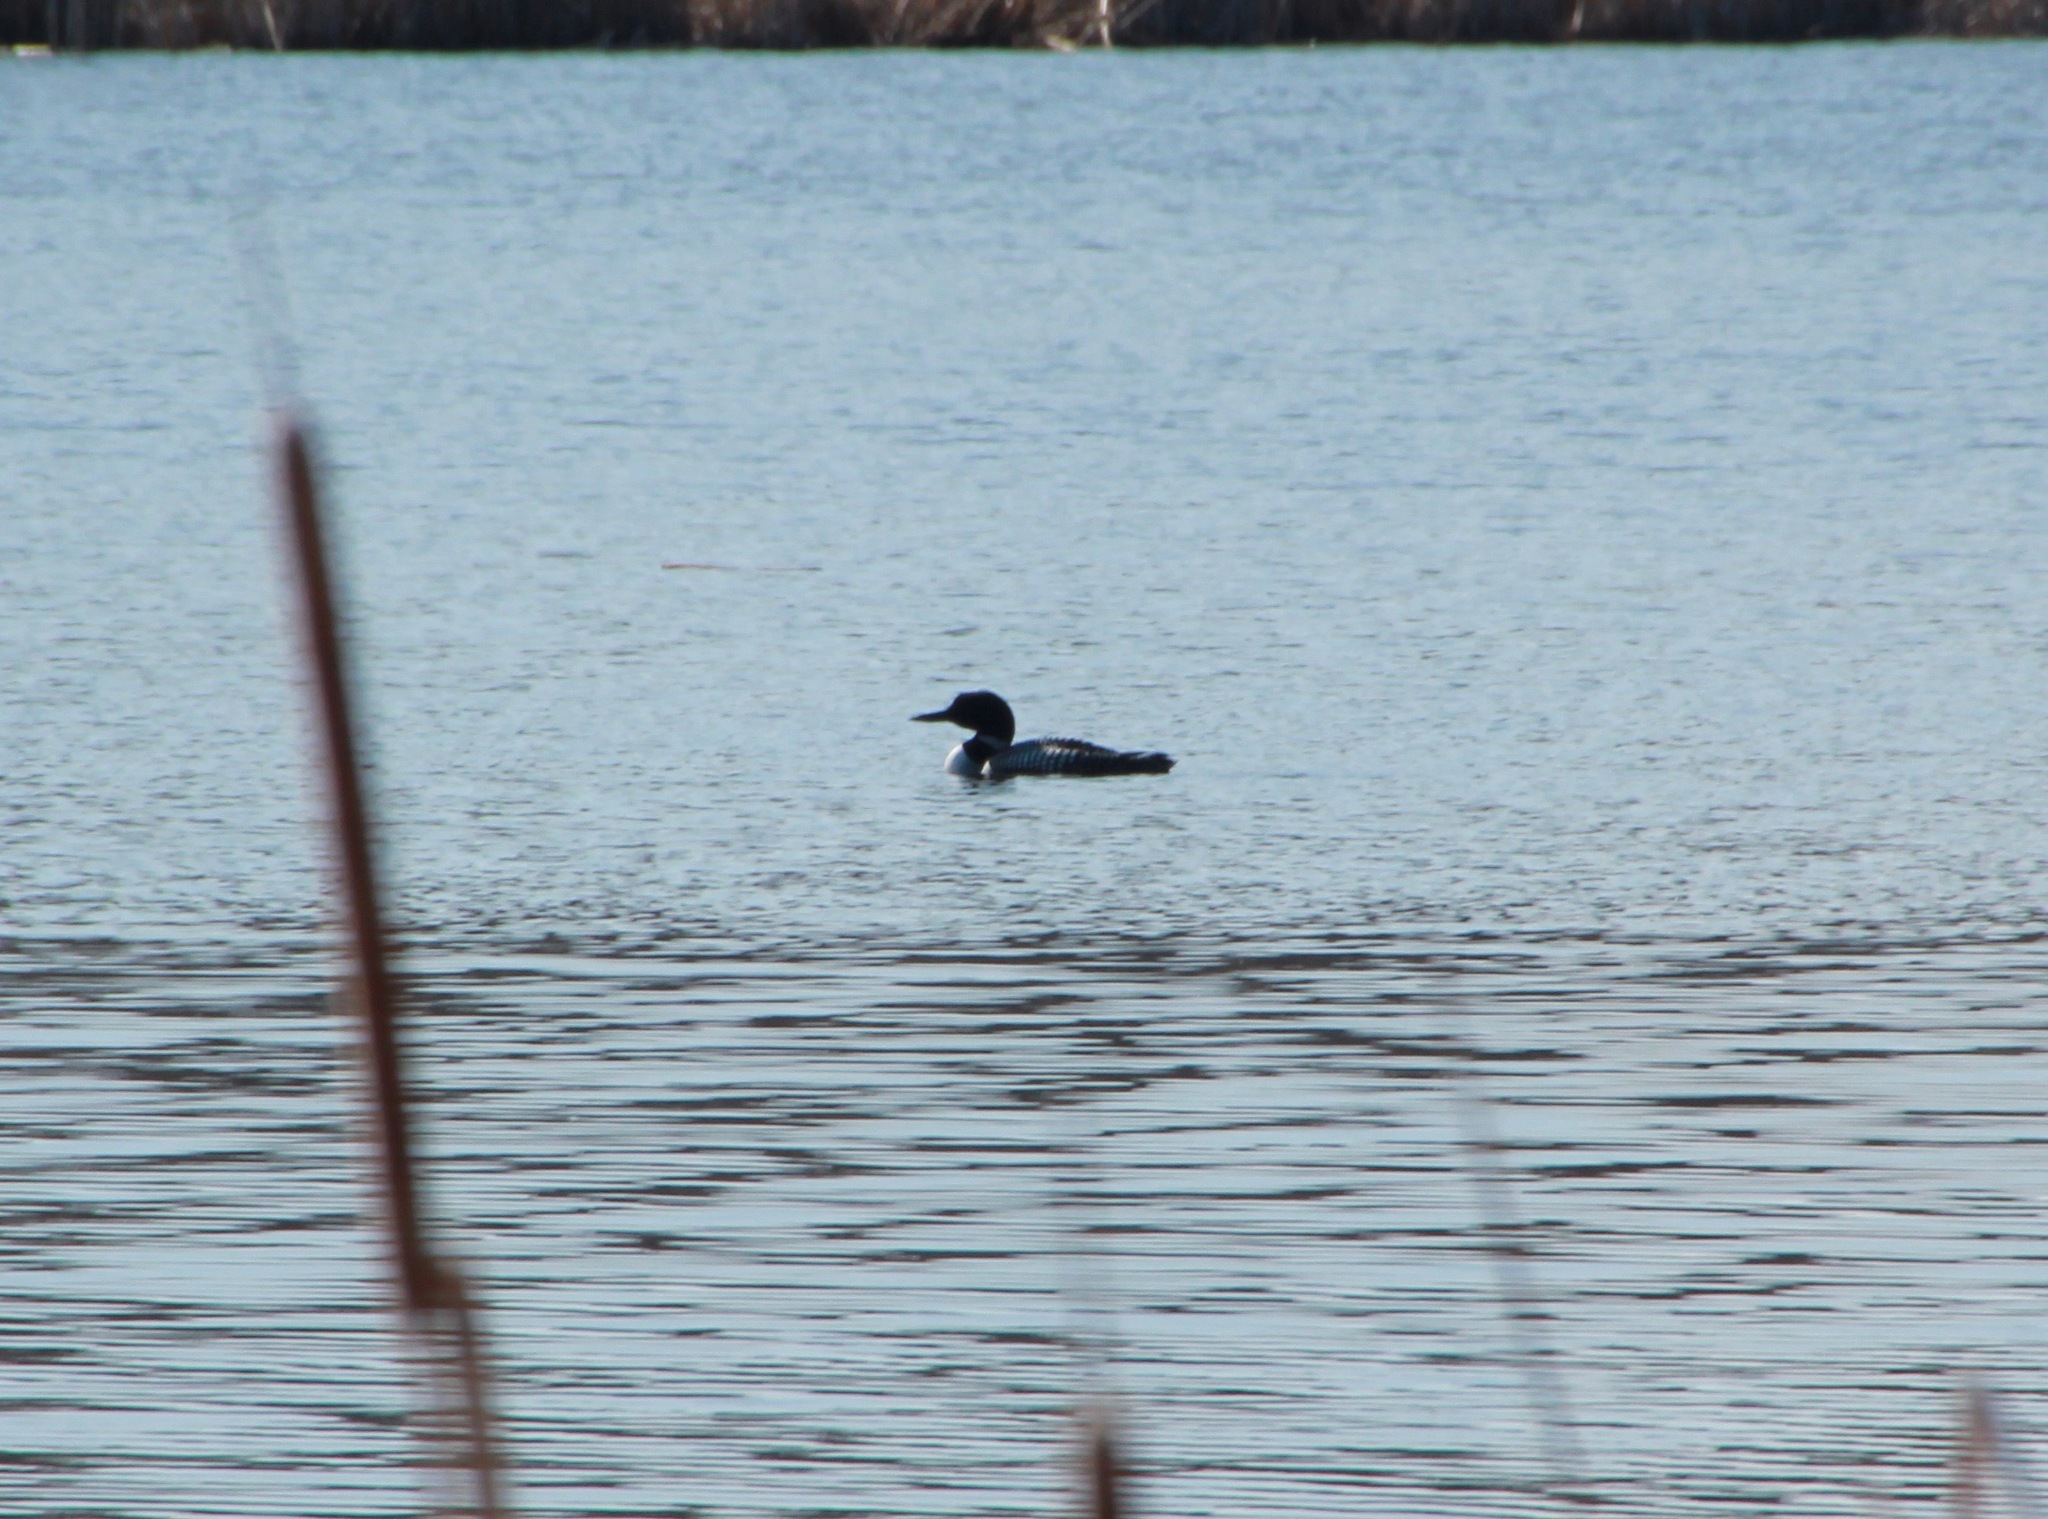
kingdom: Animalia
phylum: Chordata
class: Aves
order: Gaviiformes
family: Gaviidae
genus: Gavia
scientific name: Gavia immer
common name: Common loon
